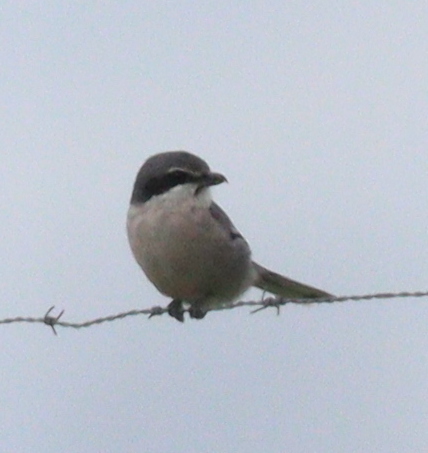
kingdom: Animalia
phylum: Chordata
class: Aves
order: Passeriformes
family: Laniidae
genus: Lanius
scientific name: Lanius meridionalis
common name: Iberian grey shrike
